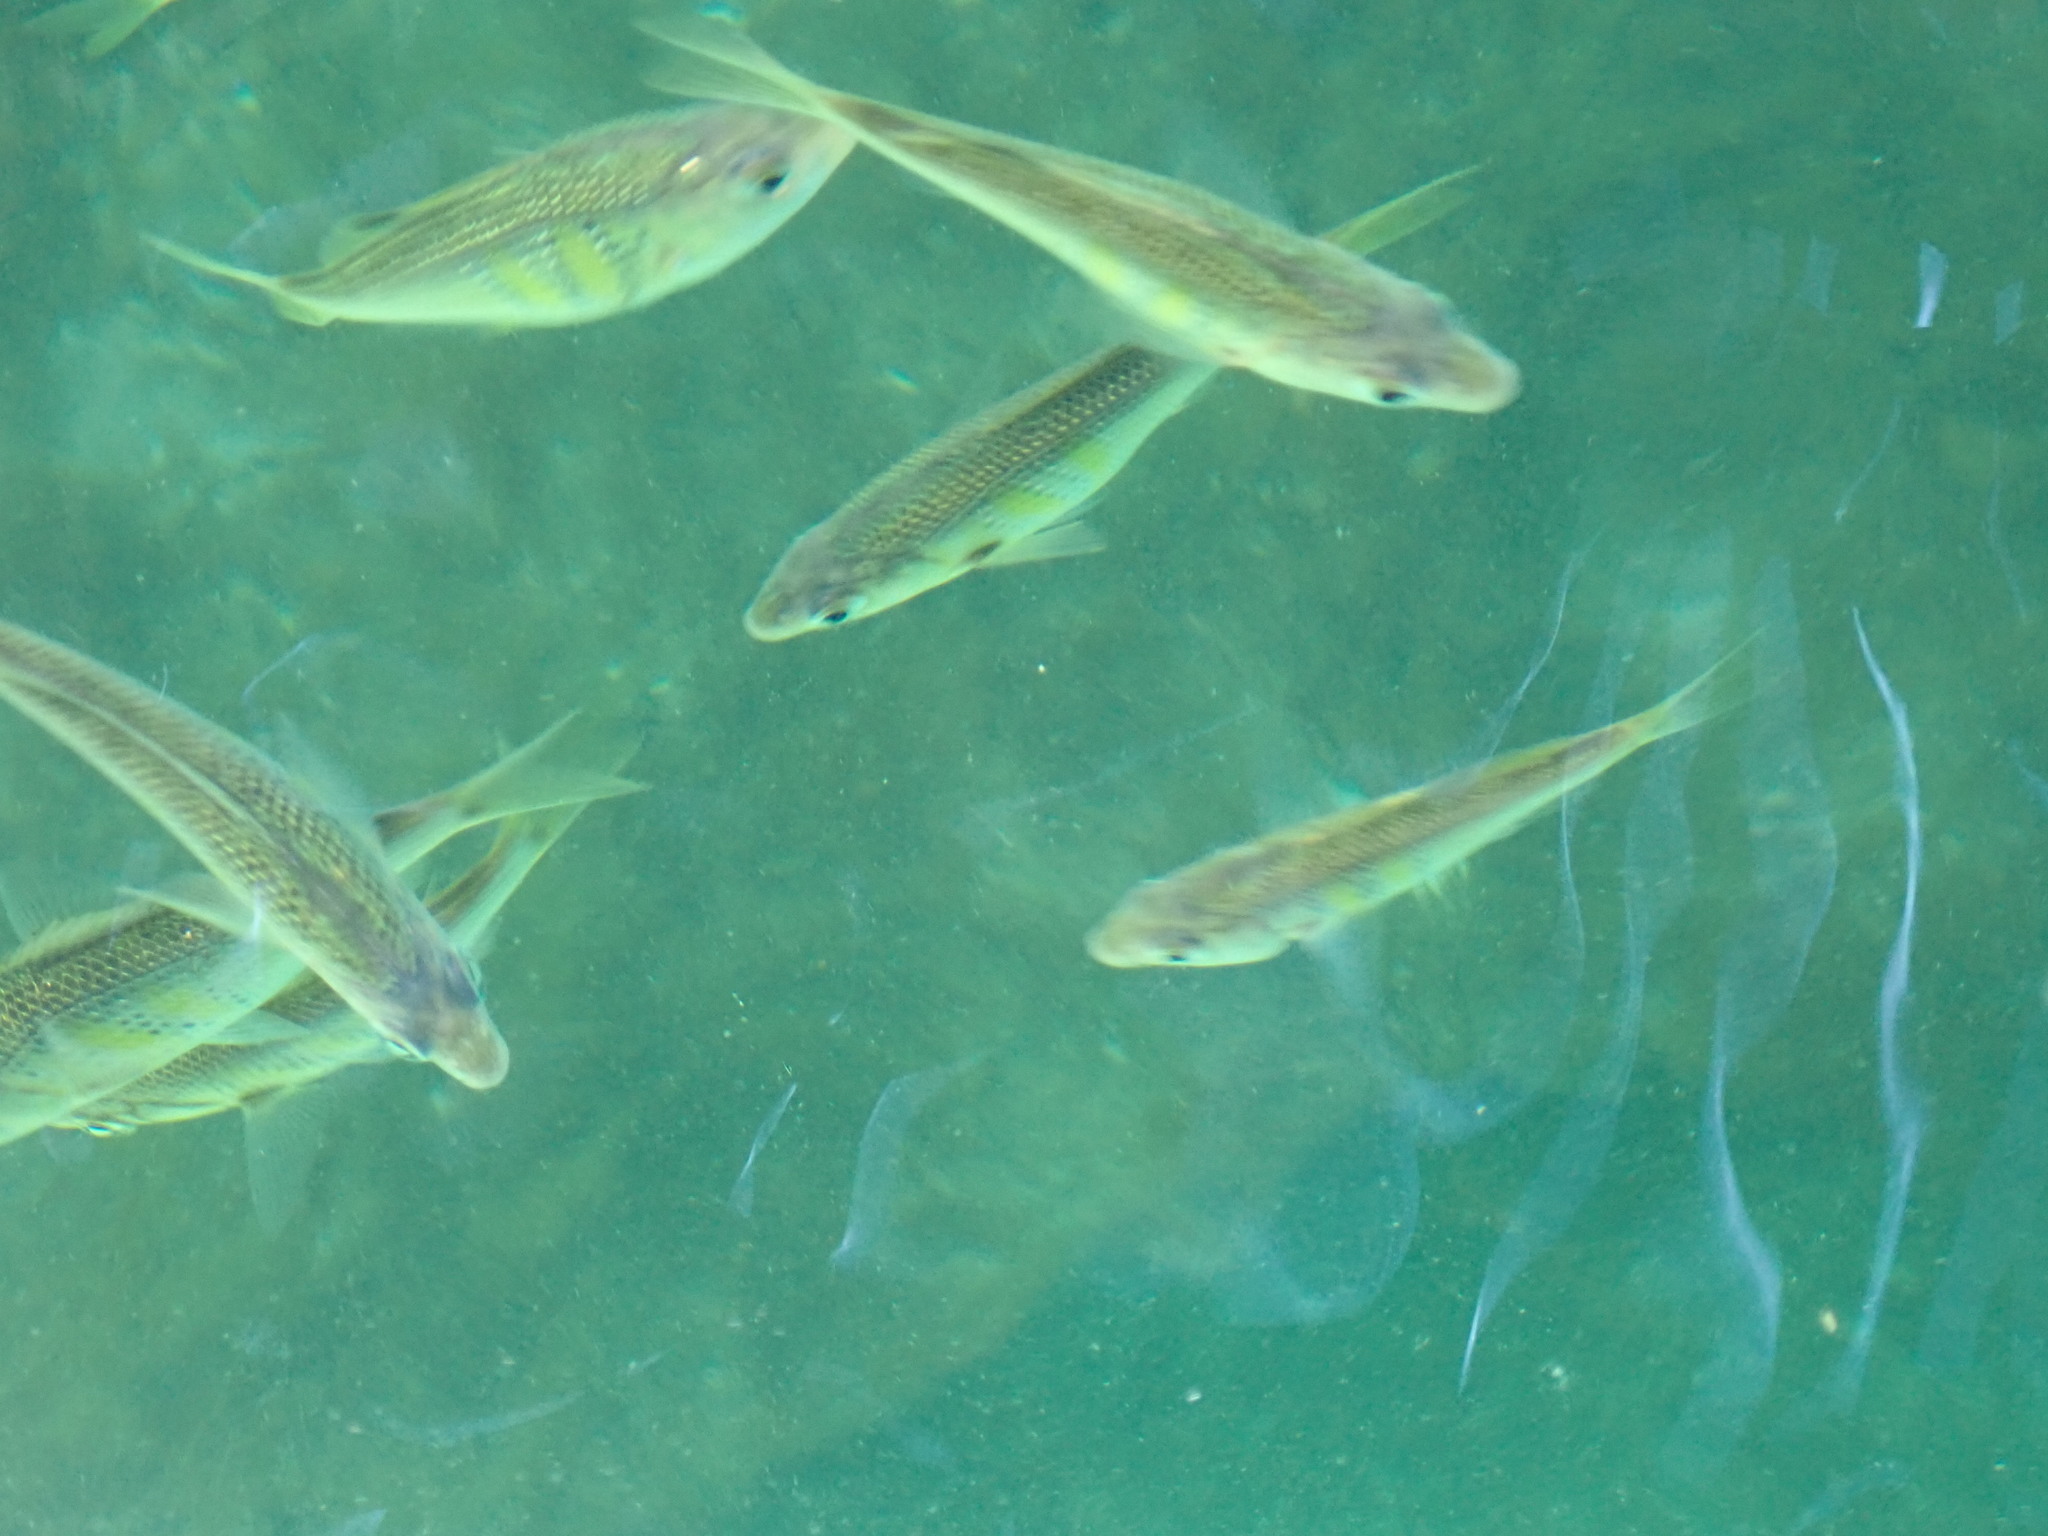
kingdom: Animalia
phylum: Chordata
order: Perciformes
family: Embiotocidae
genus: Cymatogaster
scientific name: Cymatogaster aggregata
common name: Shiner perch
